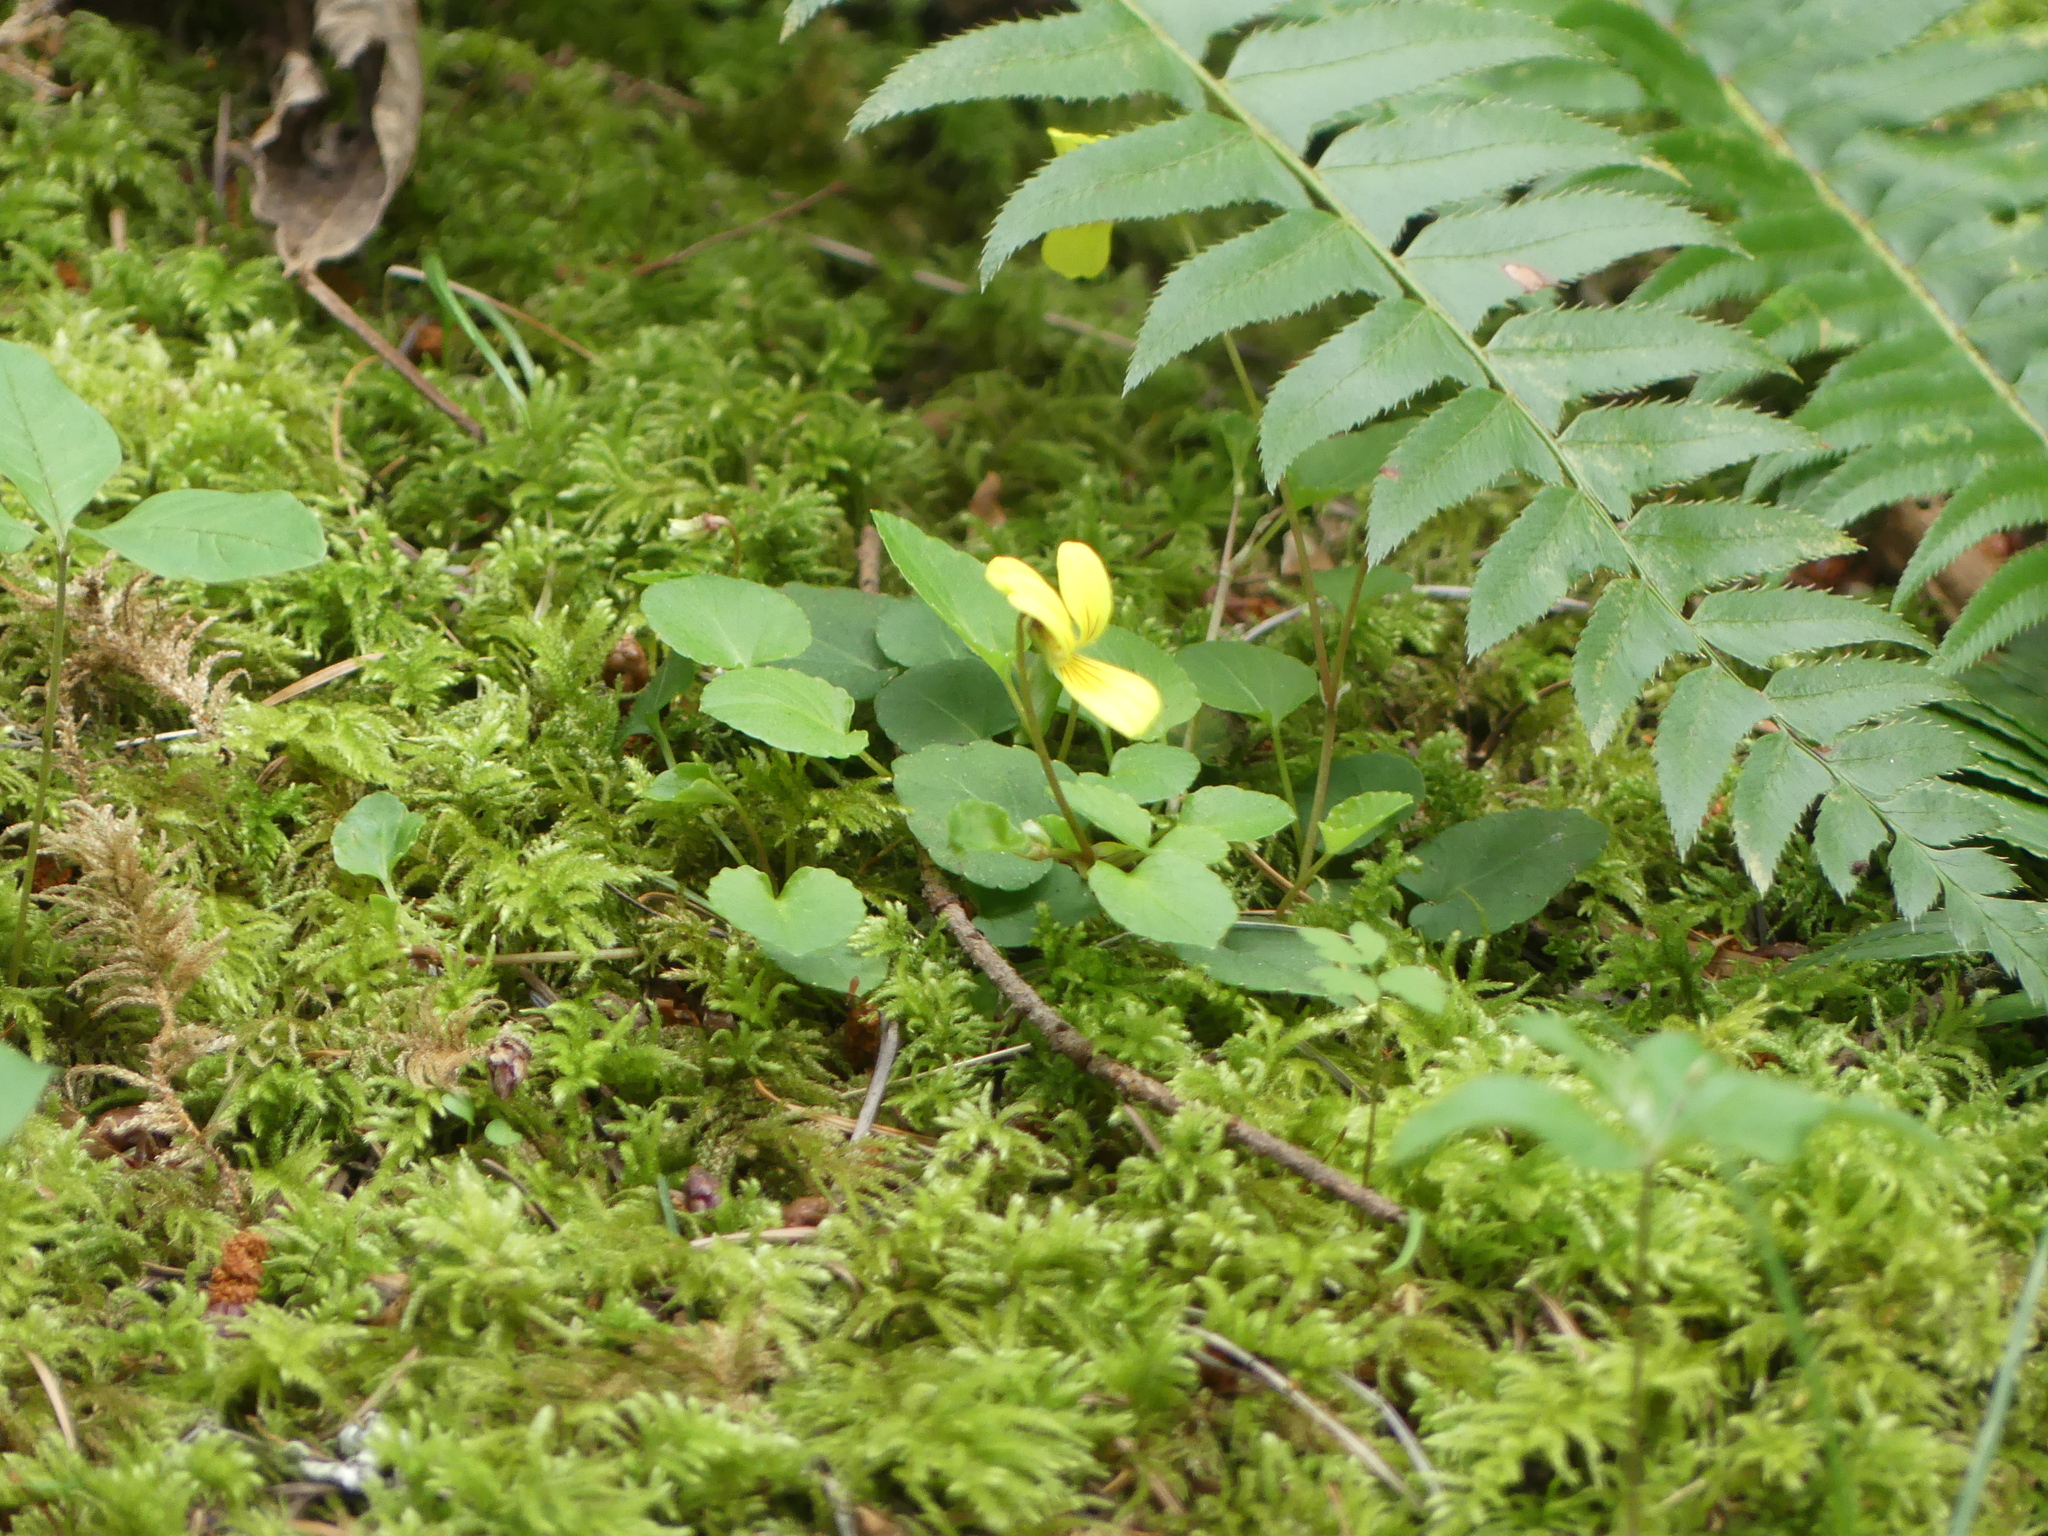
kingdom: Plantae
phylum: Tracheophyta
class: Magnoliopsida
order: Malpighiales
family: Violaceae
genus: Viola
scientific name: Viola sempervirens
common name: Evergreen violet
